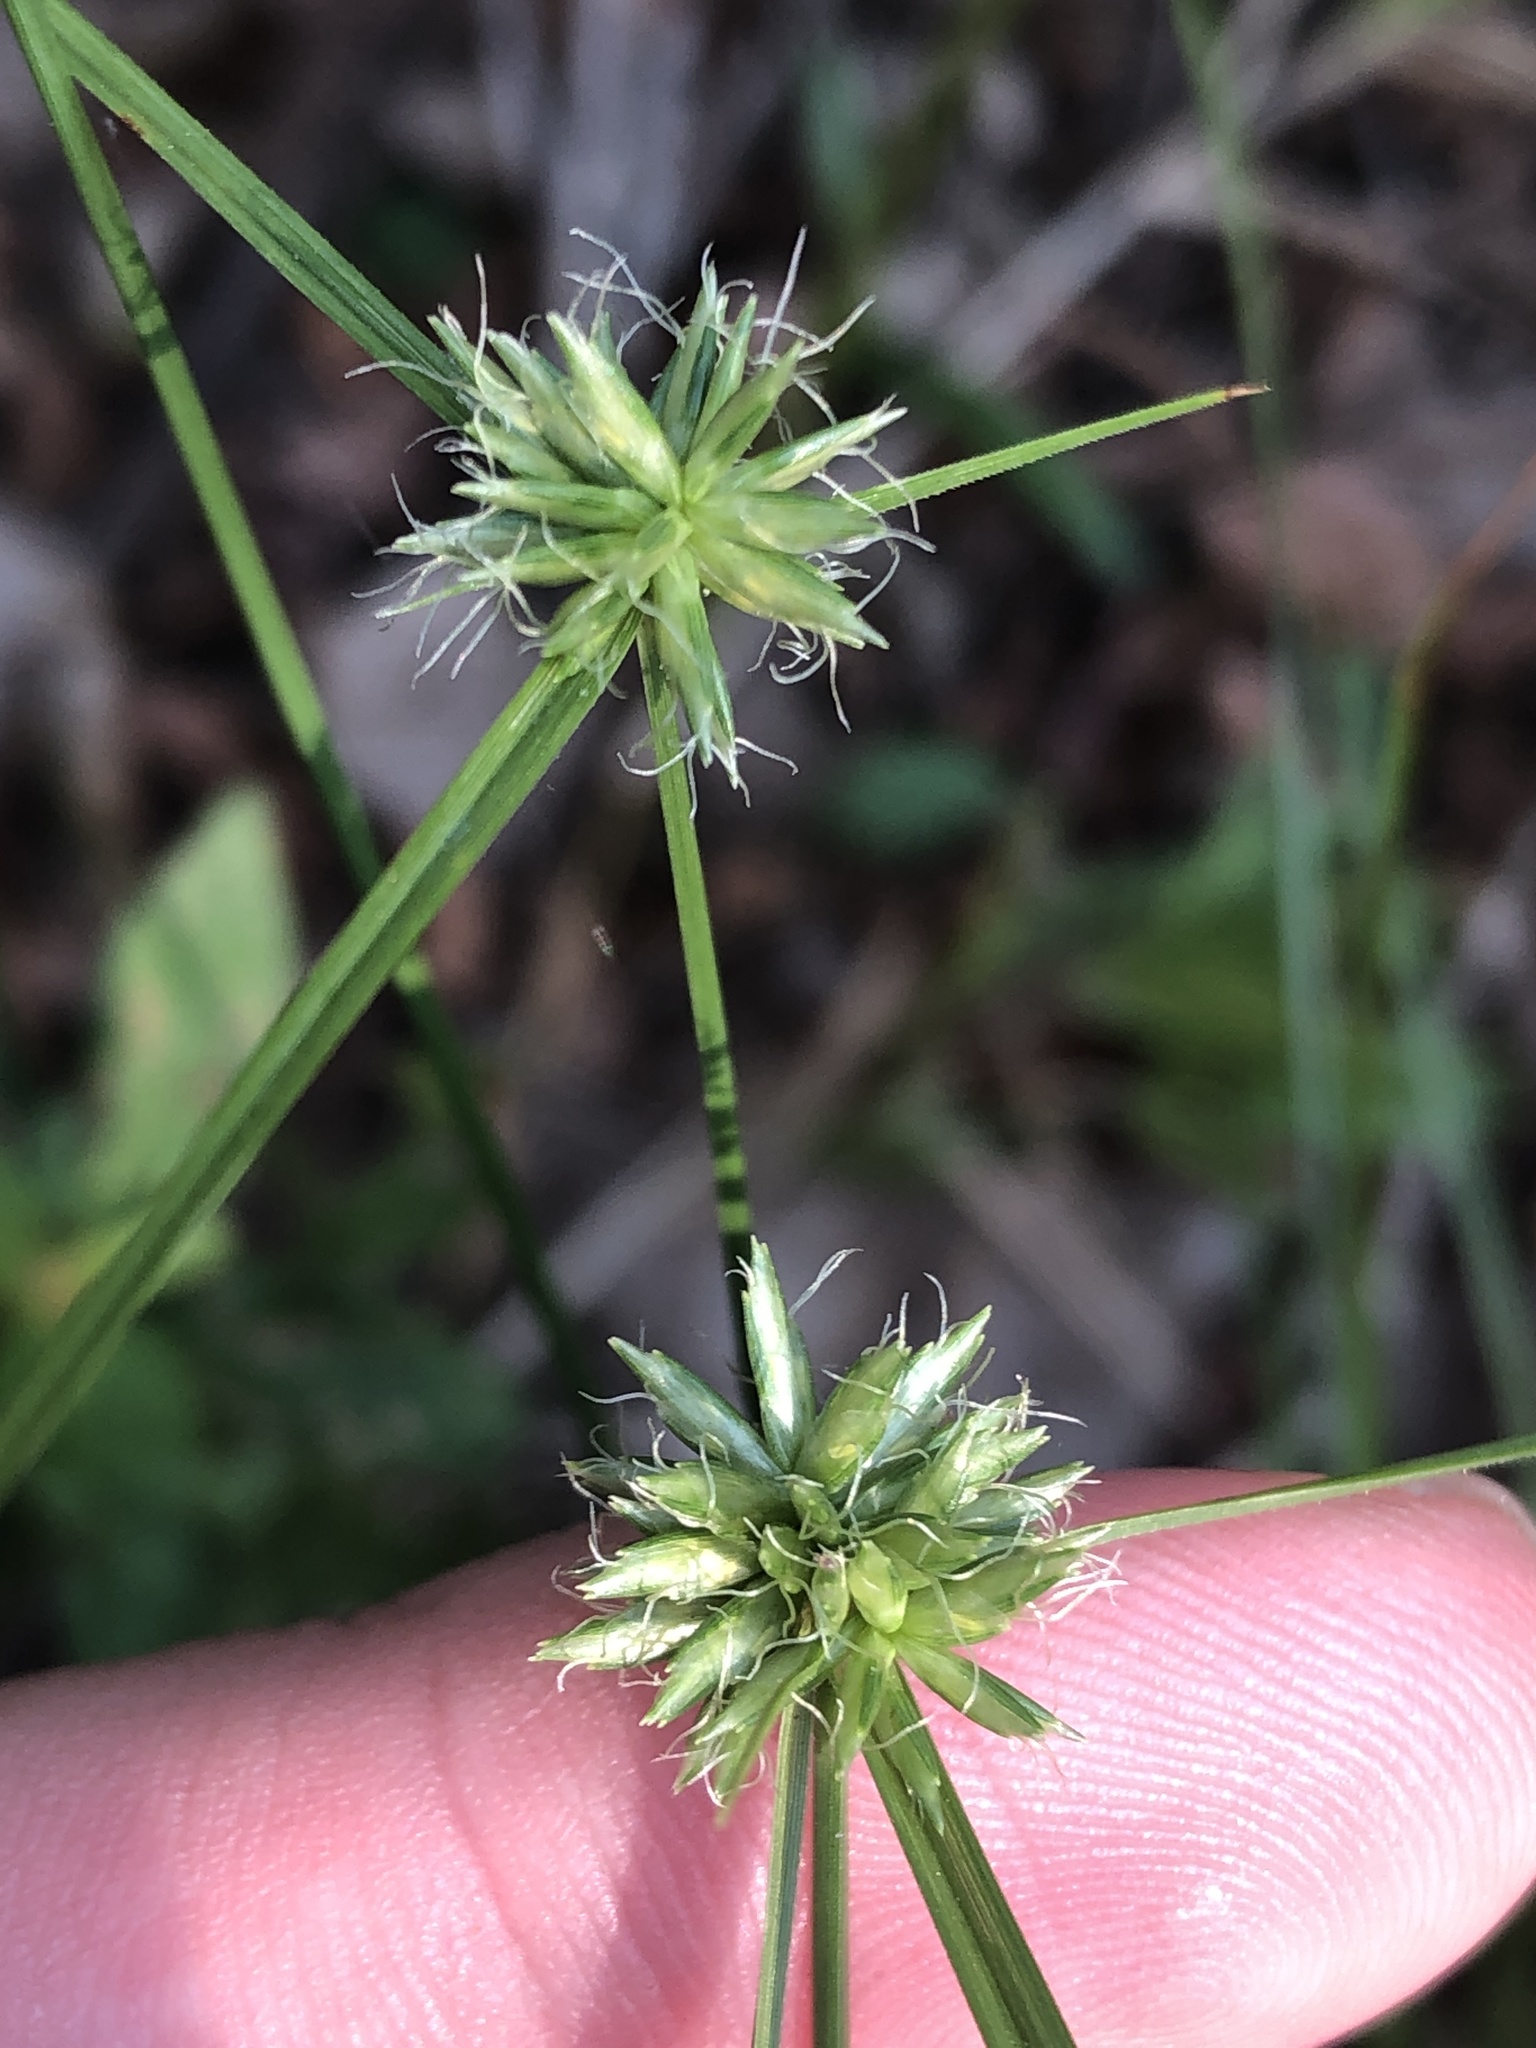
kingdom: Plantae
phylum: Tracheophyta
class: Liliopsida
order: Poales
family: Cyperaceae
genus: Cyperus
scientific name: Cyperus lupulinus
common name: Great plains flatsedge
